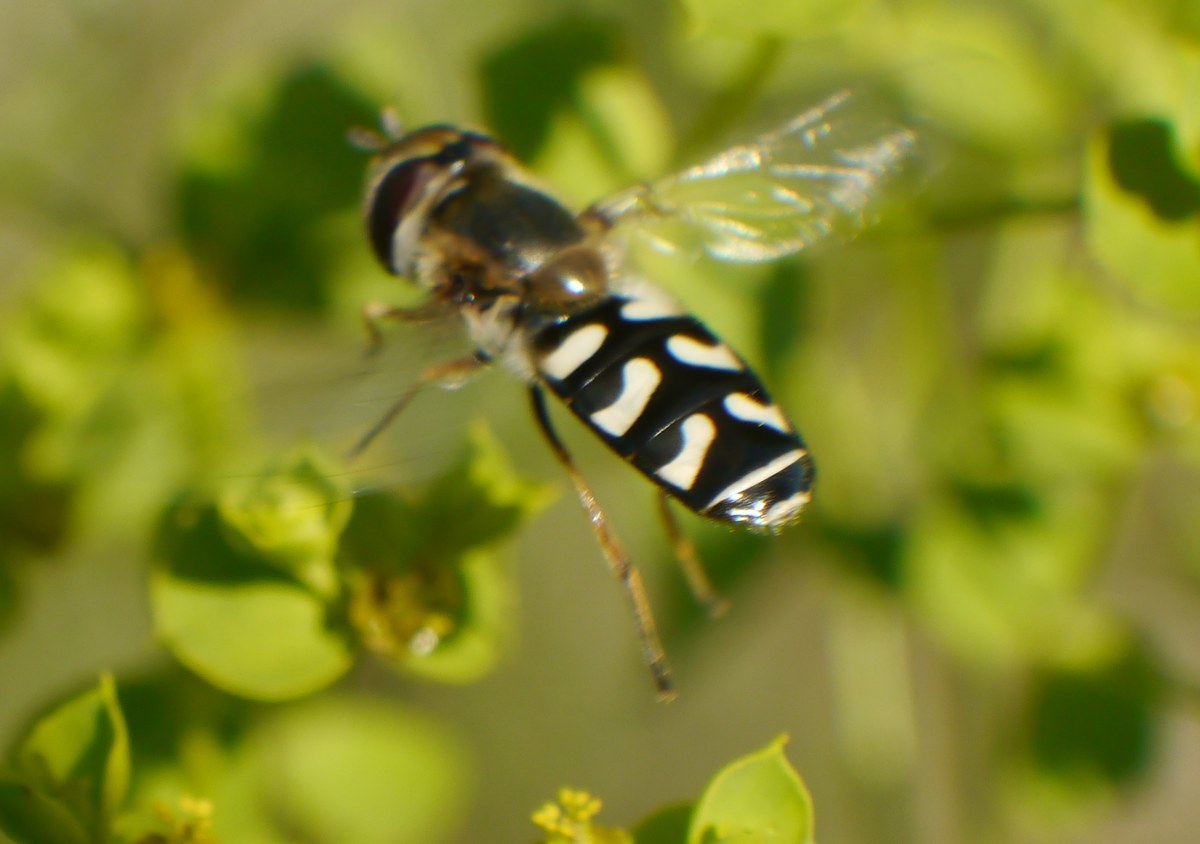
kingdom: Animalia
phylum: Arthropoda
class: Insecta
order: Diptera
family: Syrphidae
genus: Scaeva
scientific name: Scaeva pyrastri
